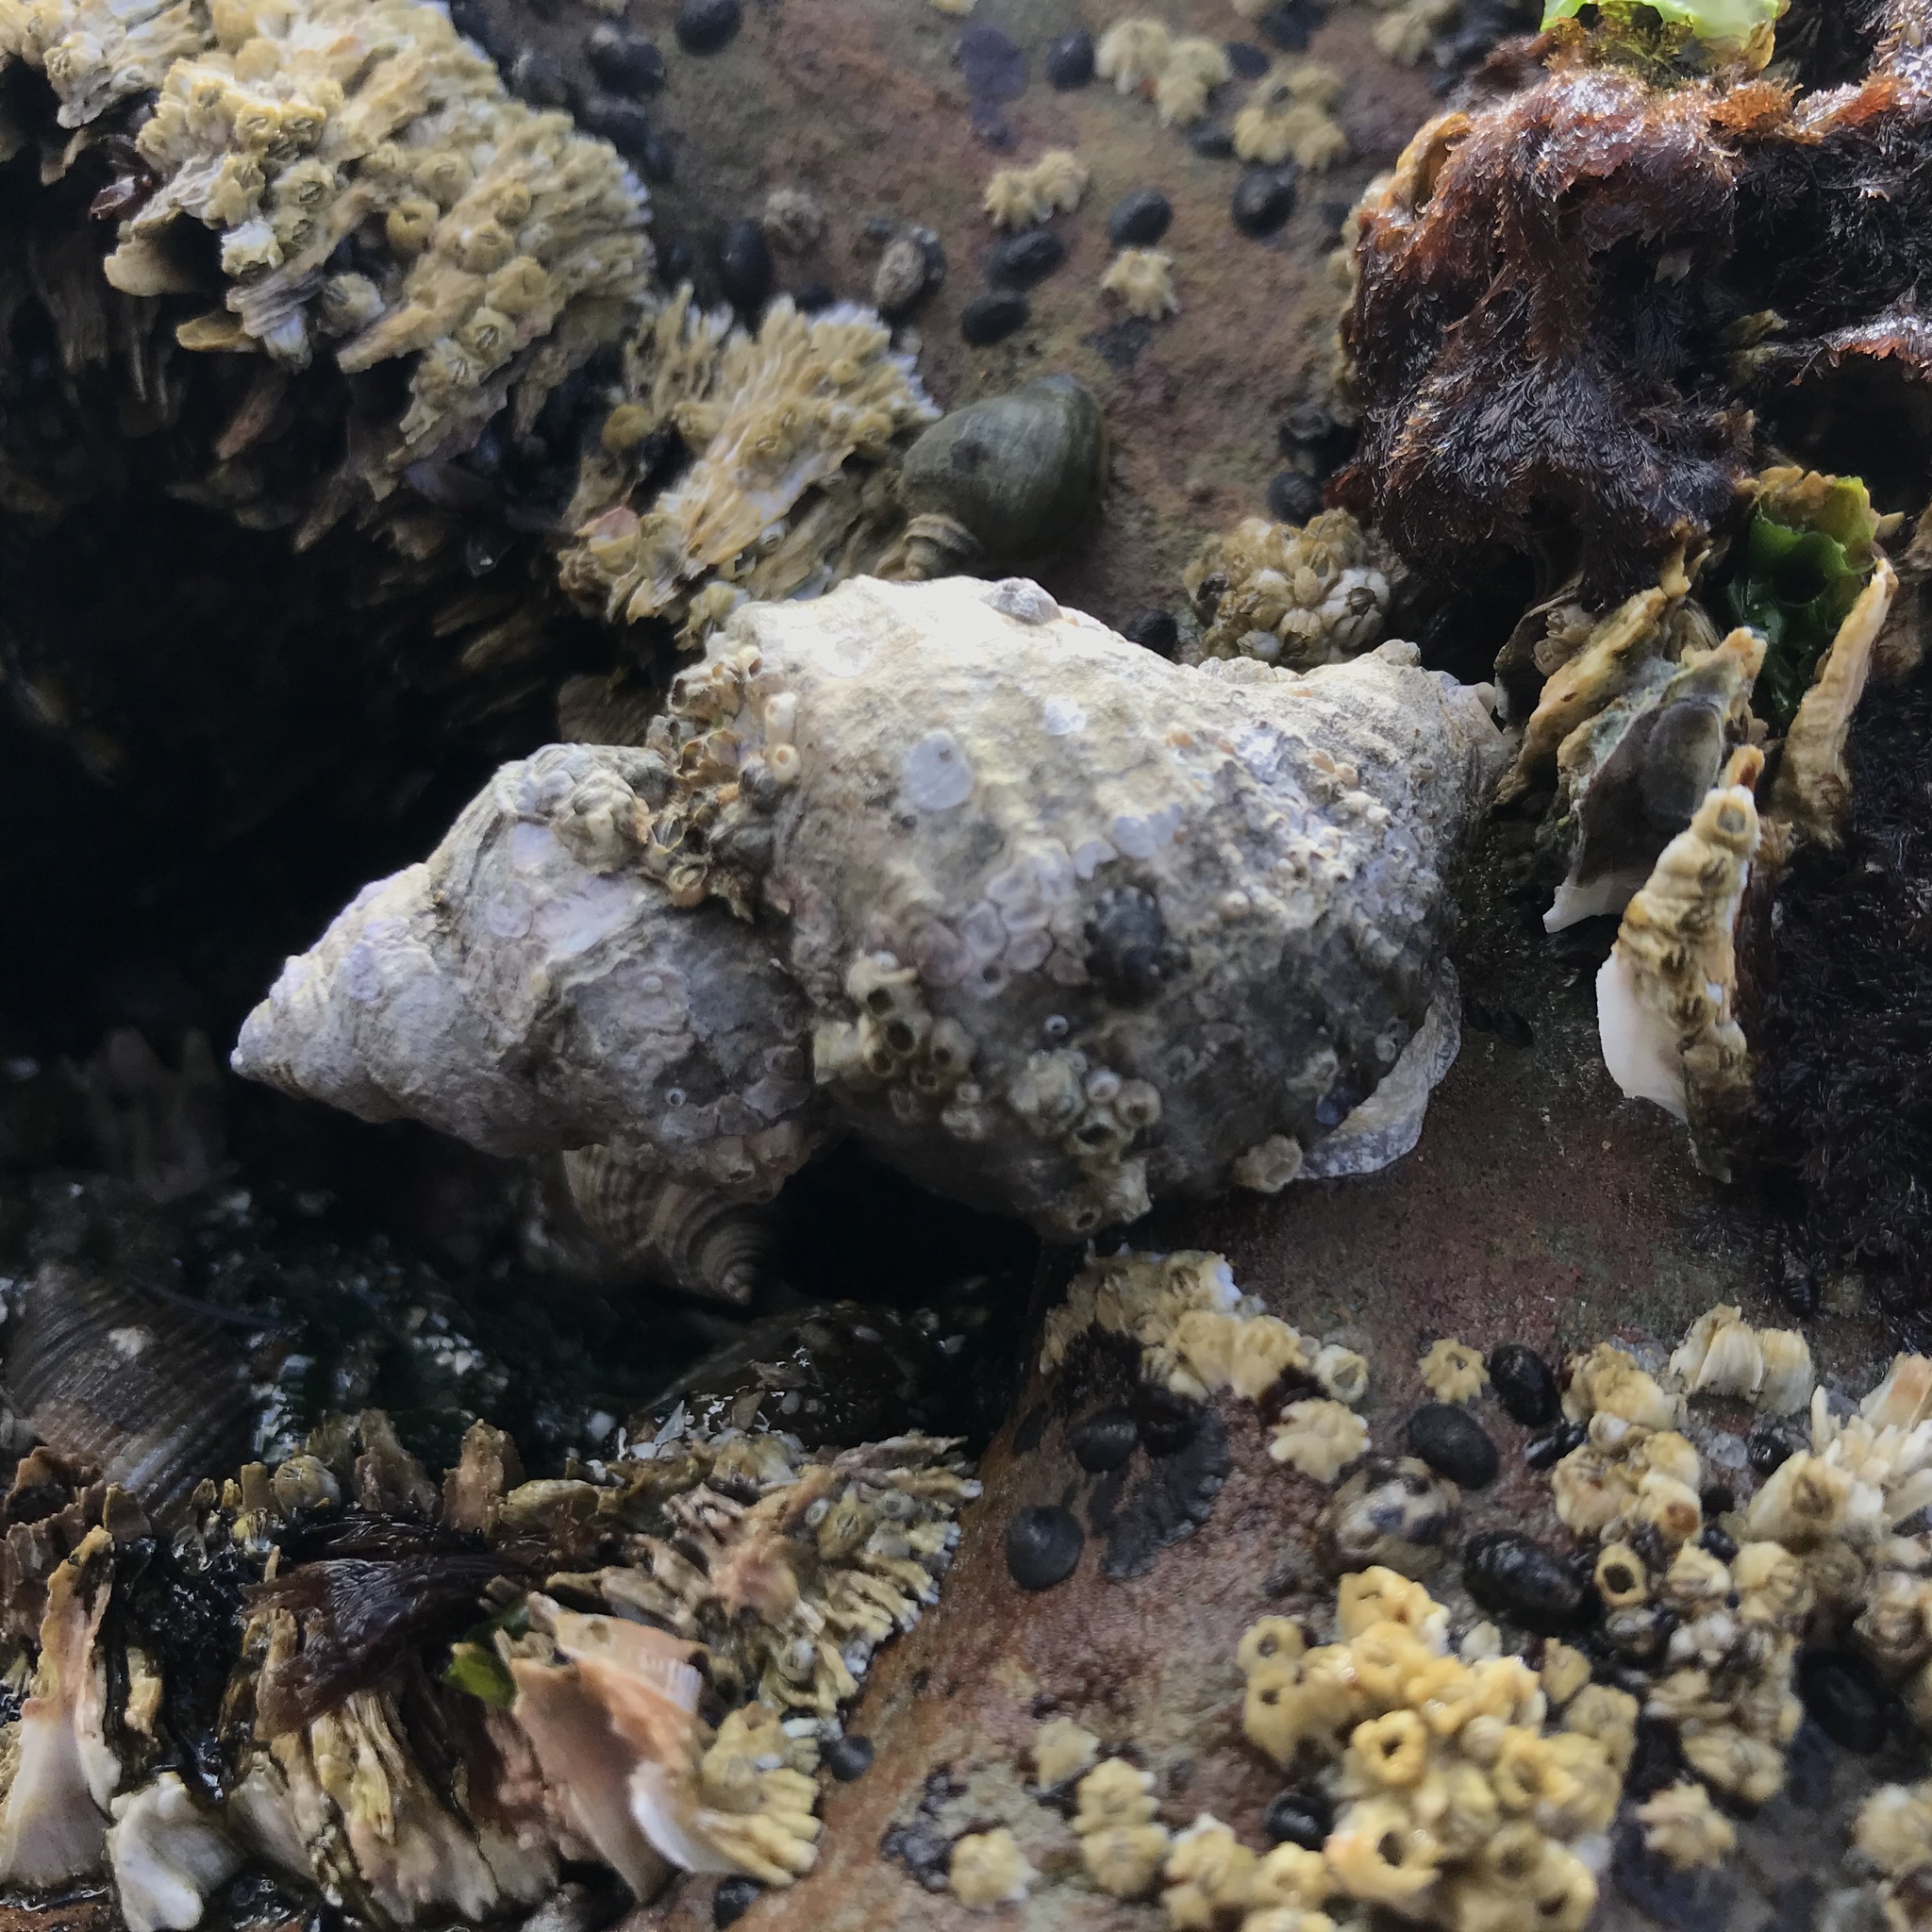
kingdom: Animalia
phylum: Mollusca
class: Gastropoda
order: Neogastropoda
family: Muricidae
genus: Nucella
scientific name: Nucella lamellosa
